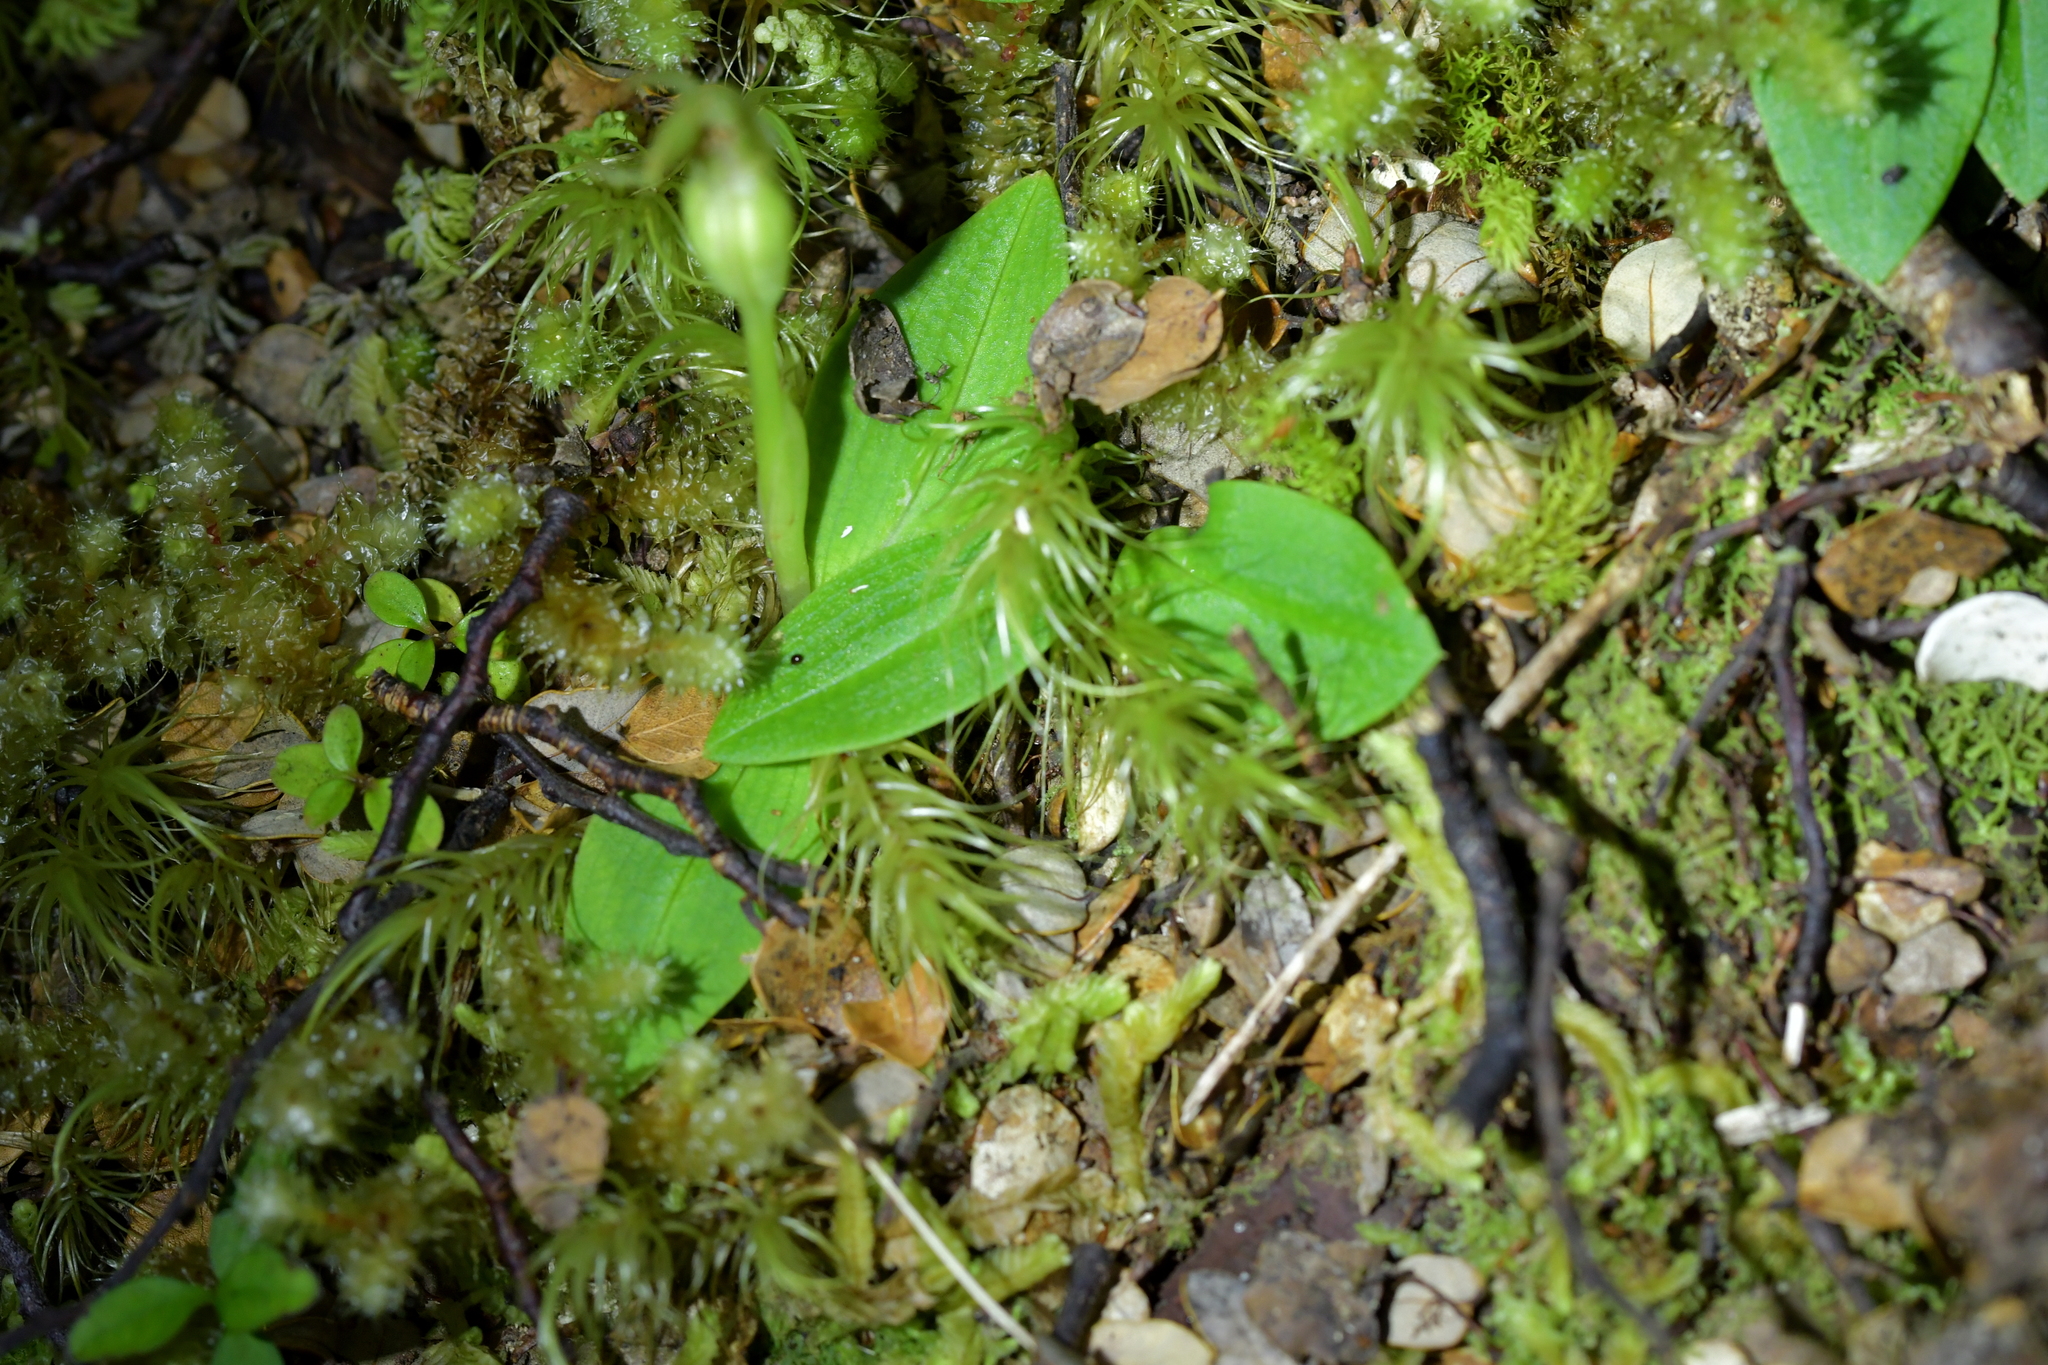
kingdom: Plantae
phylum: Tracheophyta
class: Liliopsida
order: Asparagales
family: Orchidaceae
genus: Chiloglottis
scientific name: Chiloglottis cornuta
